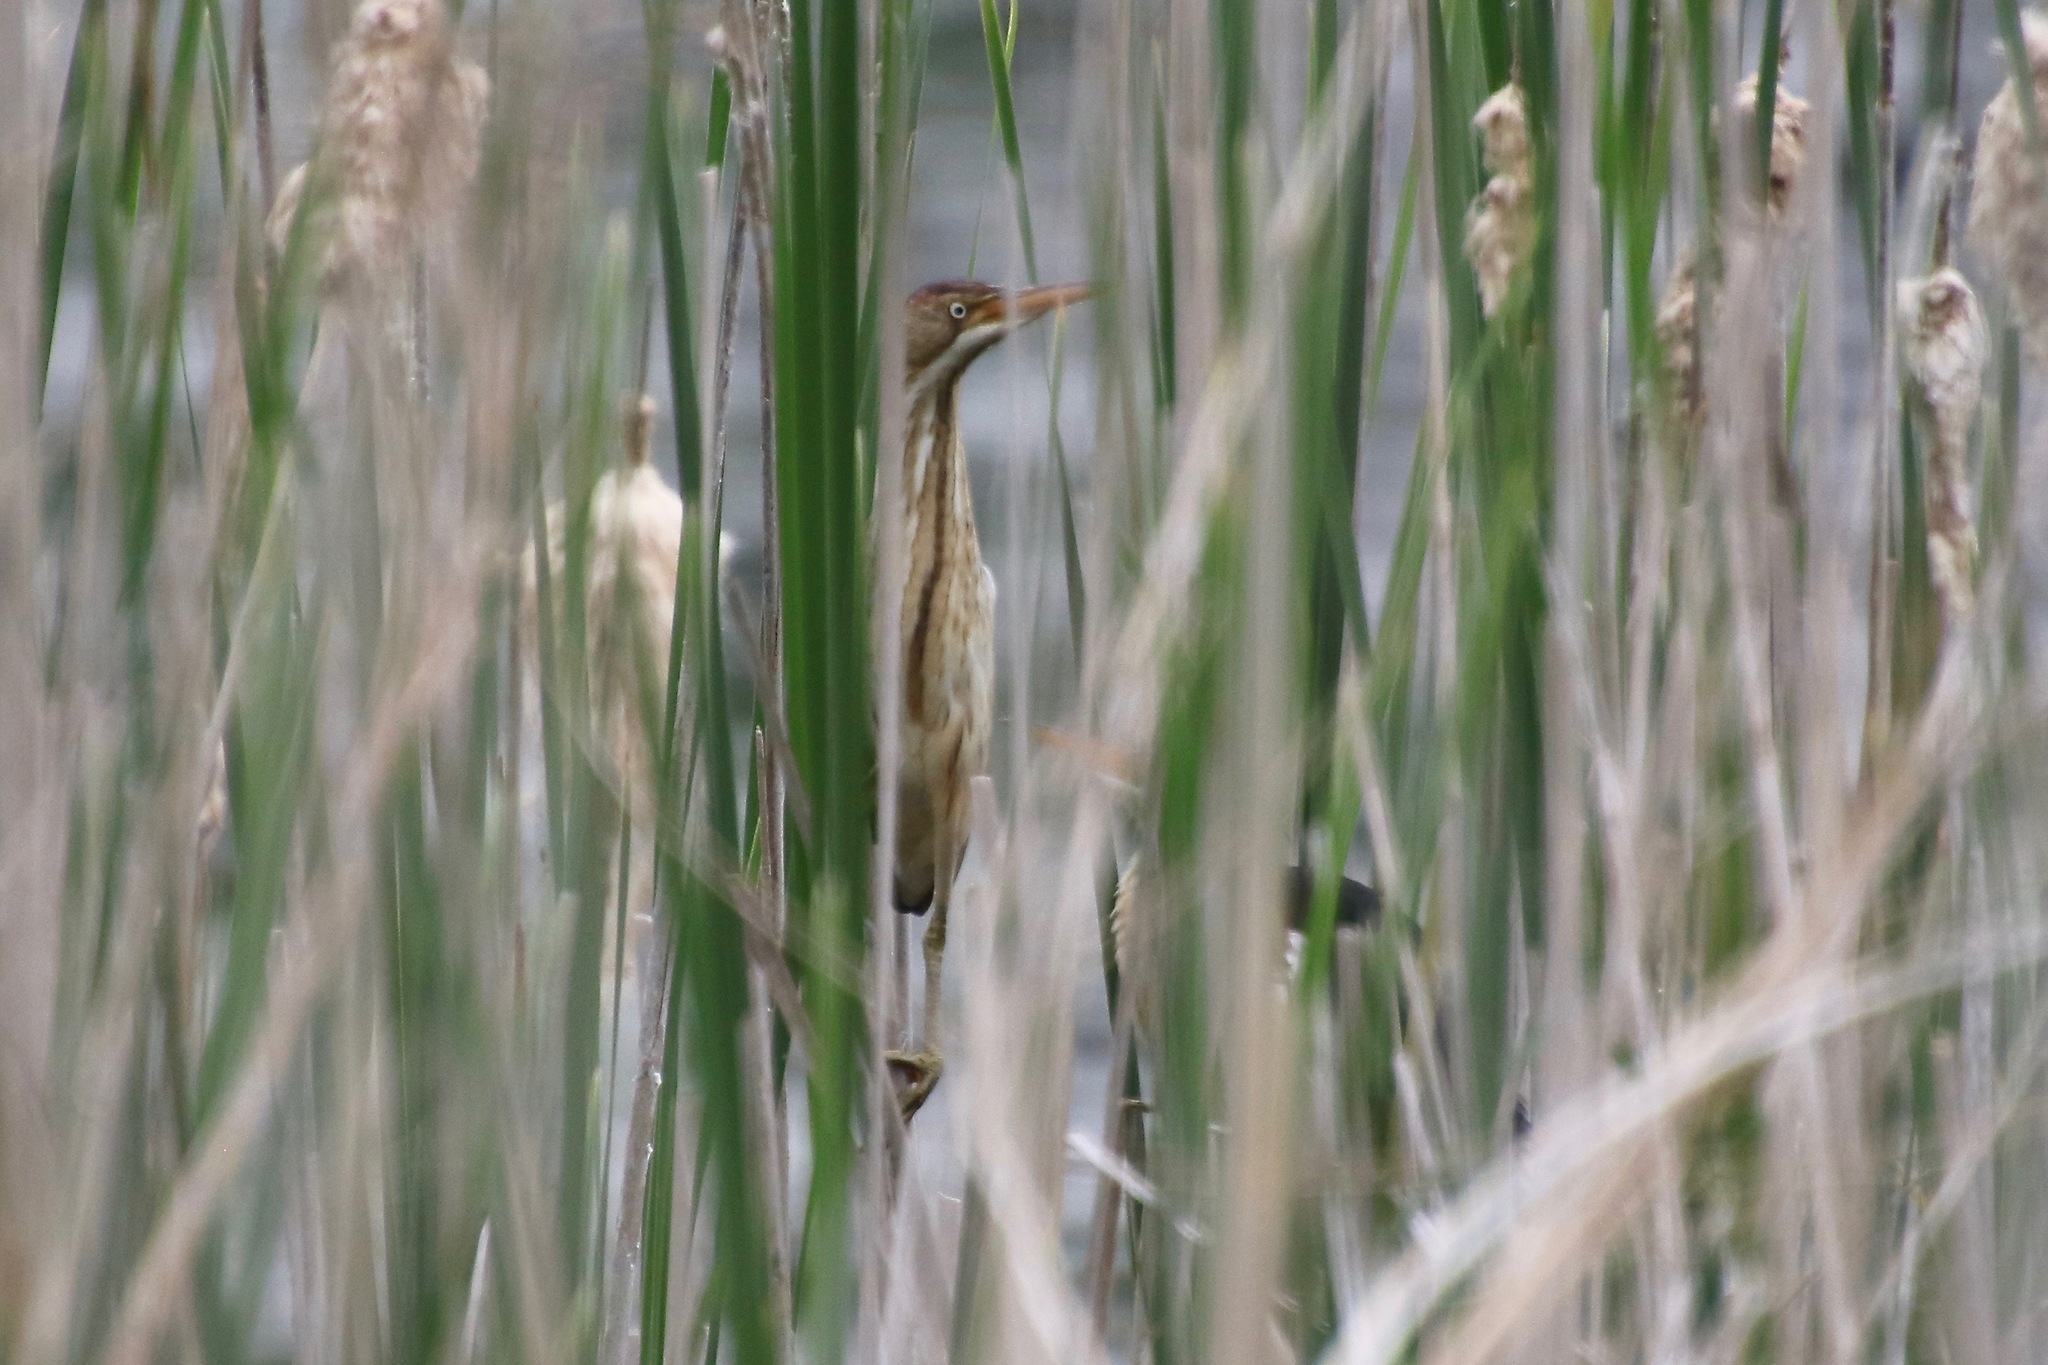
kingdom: Animalia
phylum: Chordata
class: Aves
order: Pelecaniformes
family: Ardeidae
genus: Ixobrychus
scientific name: Ixobrychus exilis
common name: Least bittern
